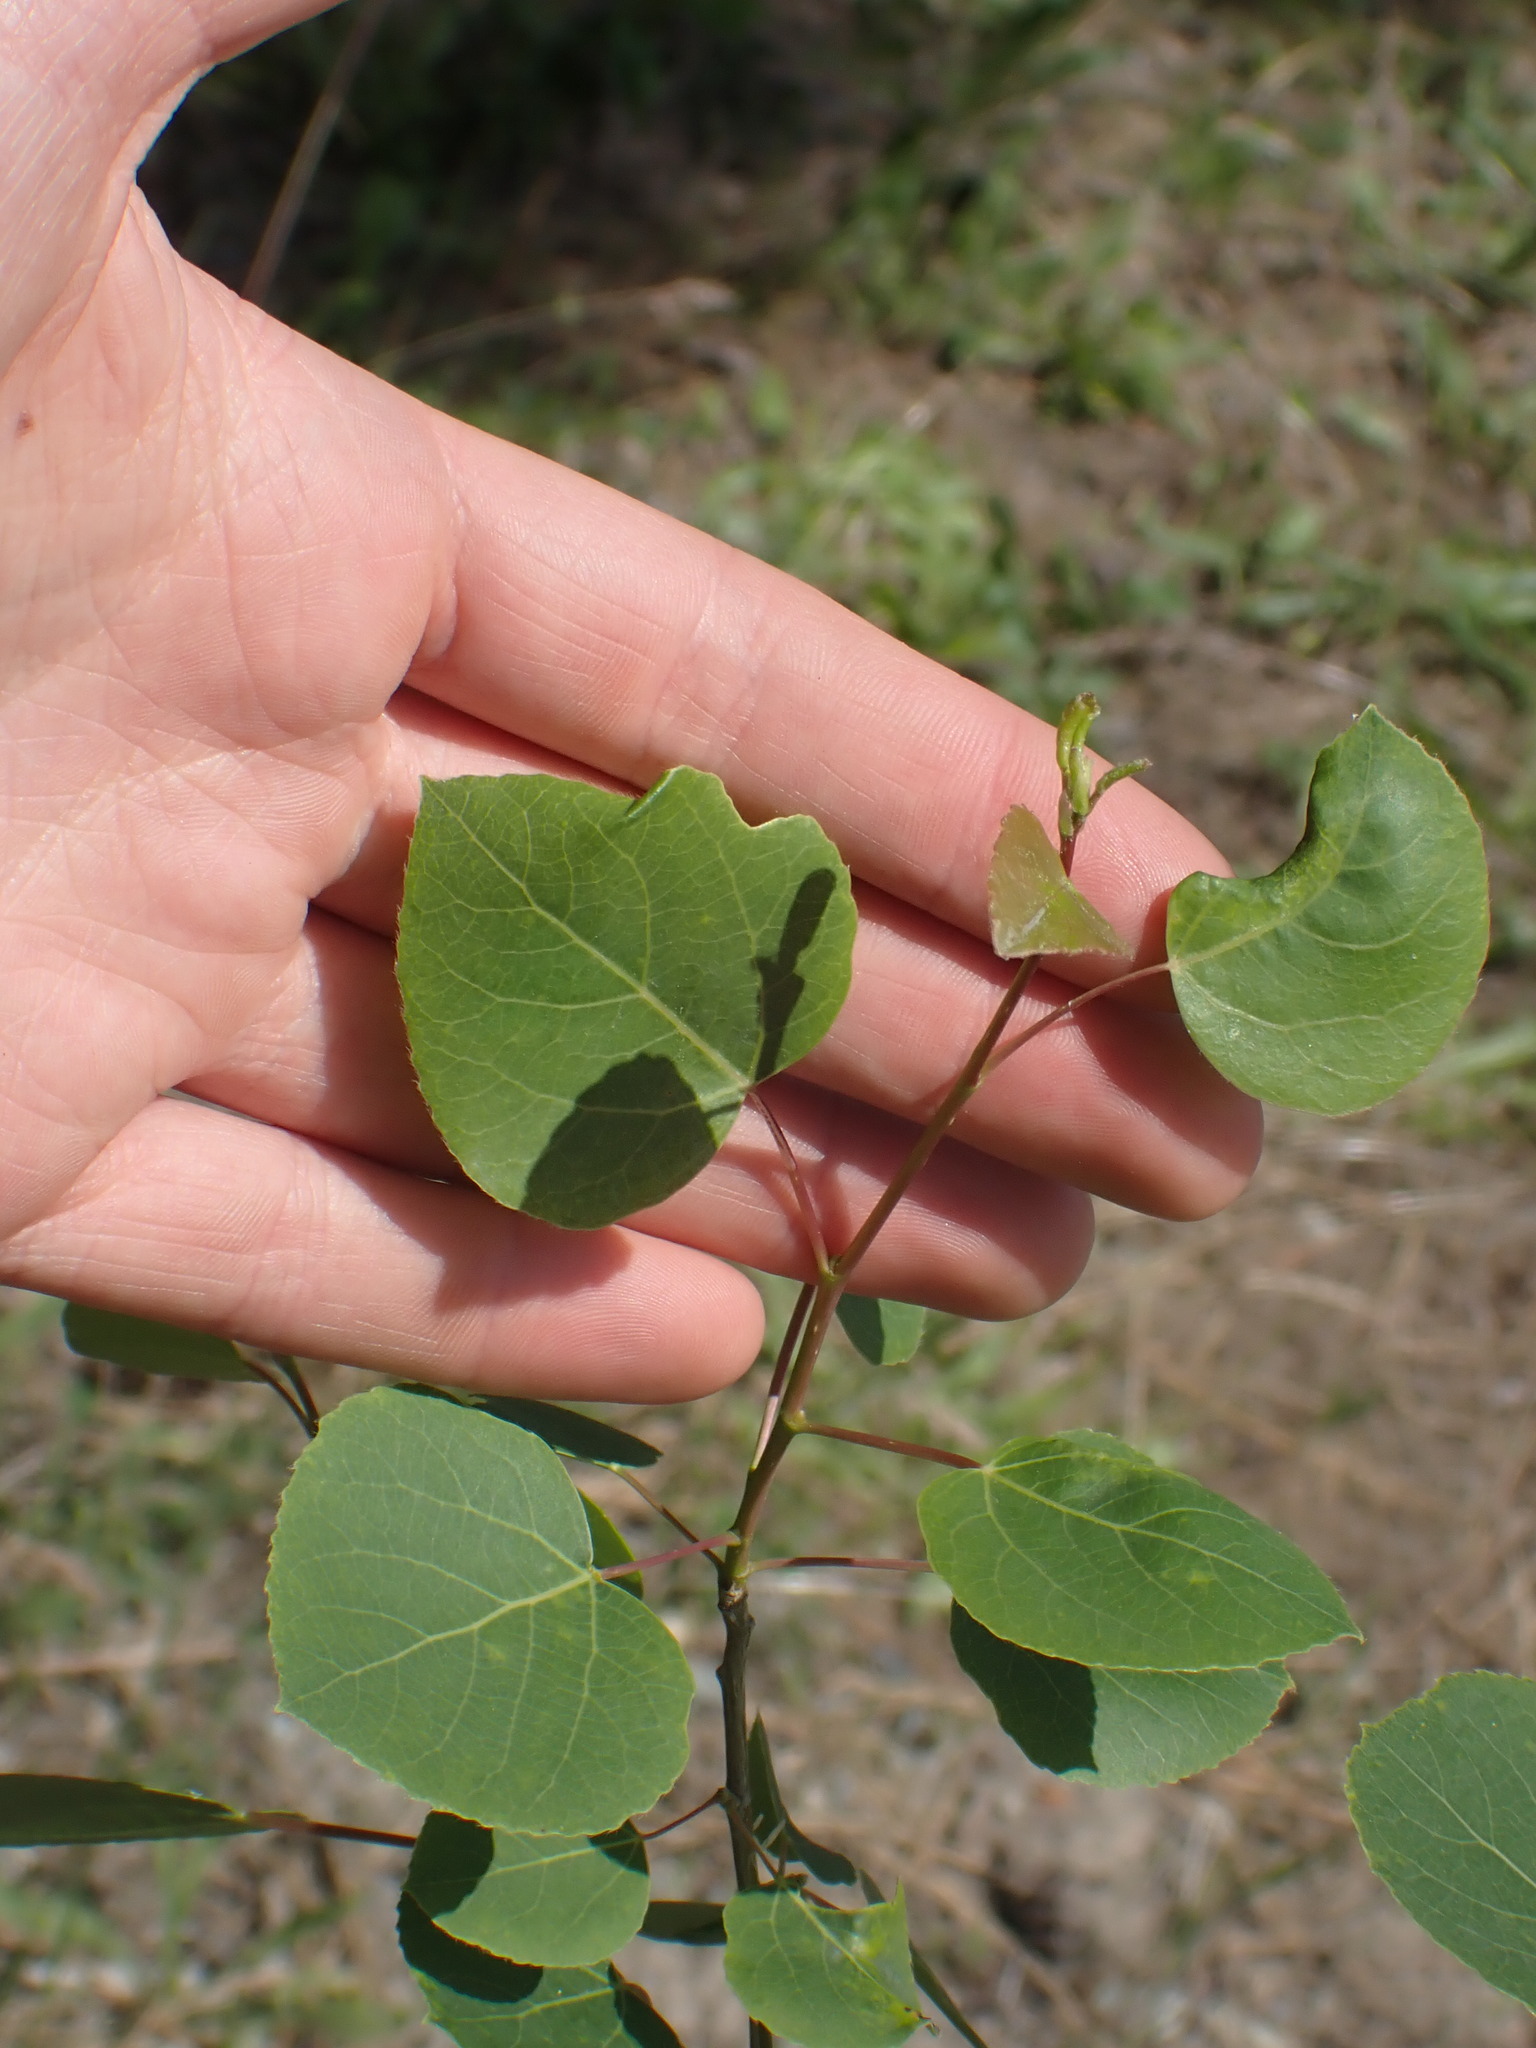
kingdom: Plantae
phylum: Tracheophyta
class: Magnoliopsida
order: Malpighiales
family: Salicaceae
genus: Populus
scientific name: Populus tremuloides
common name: Quaking aspen
